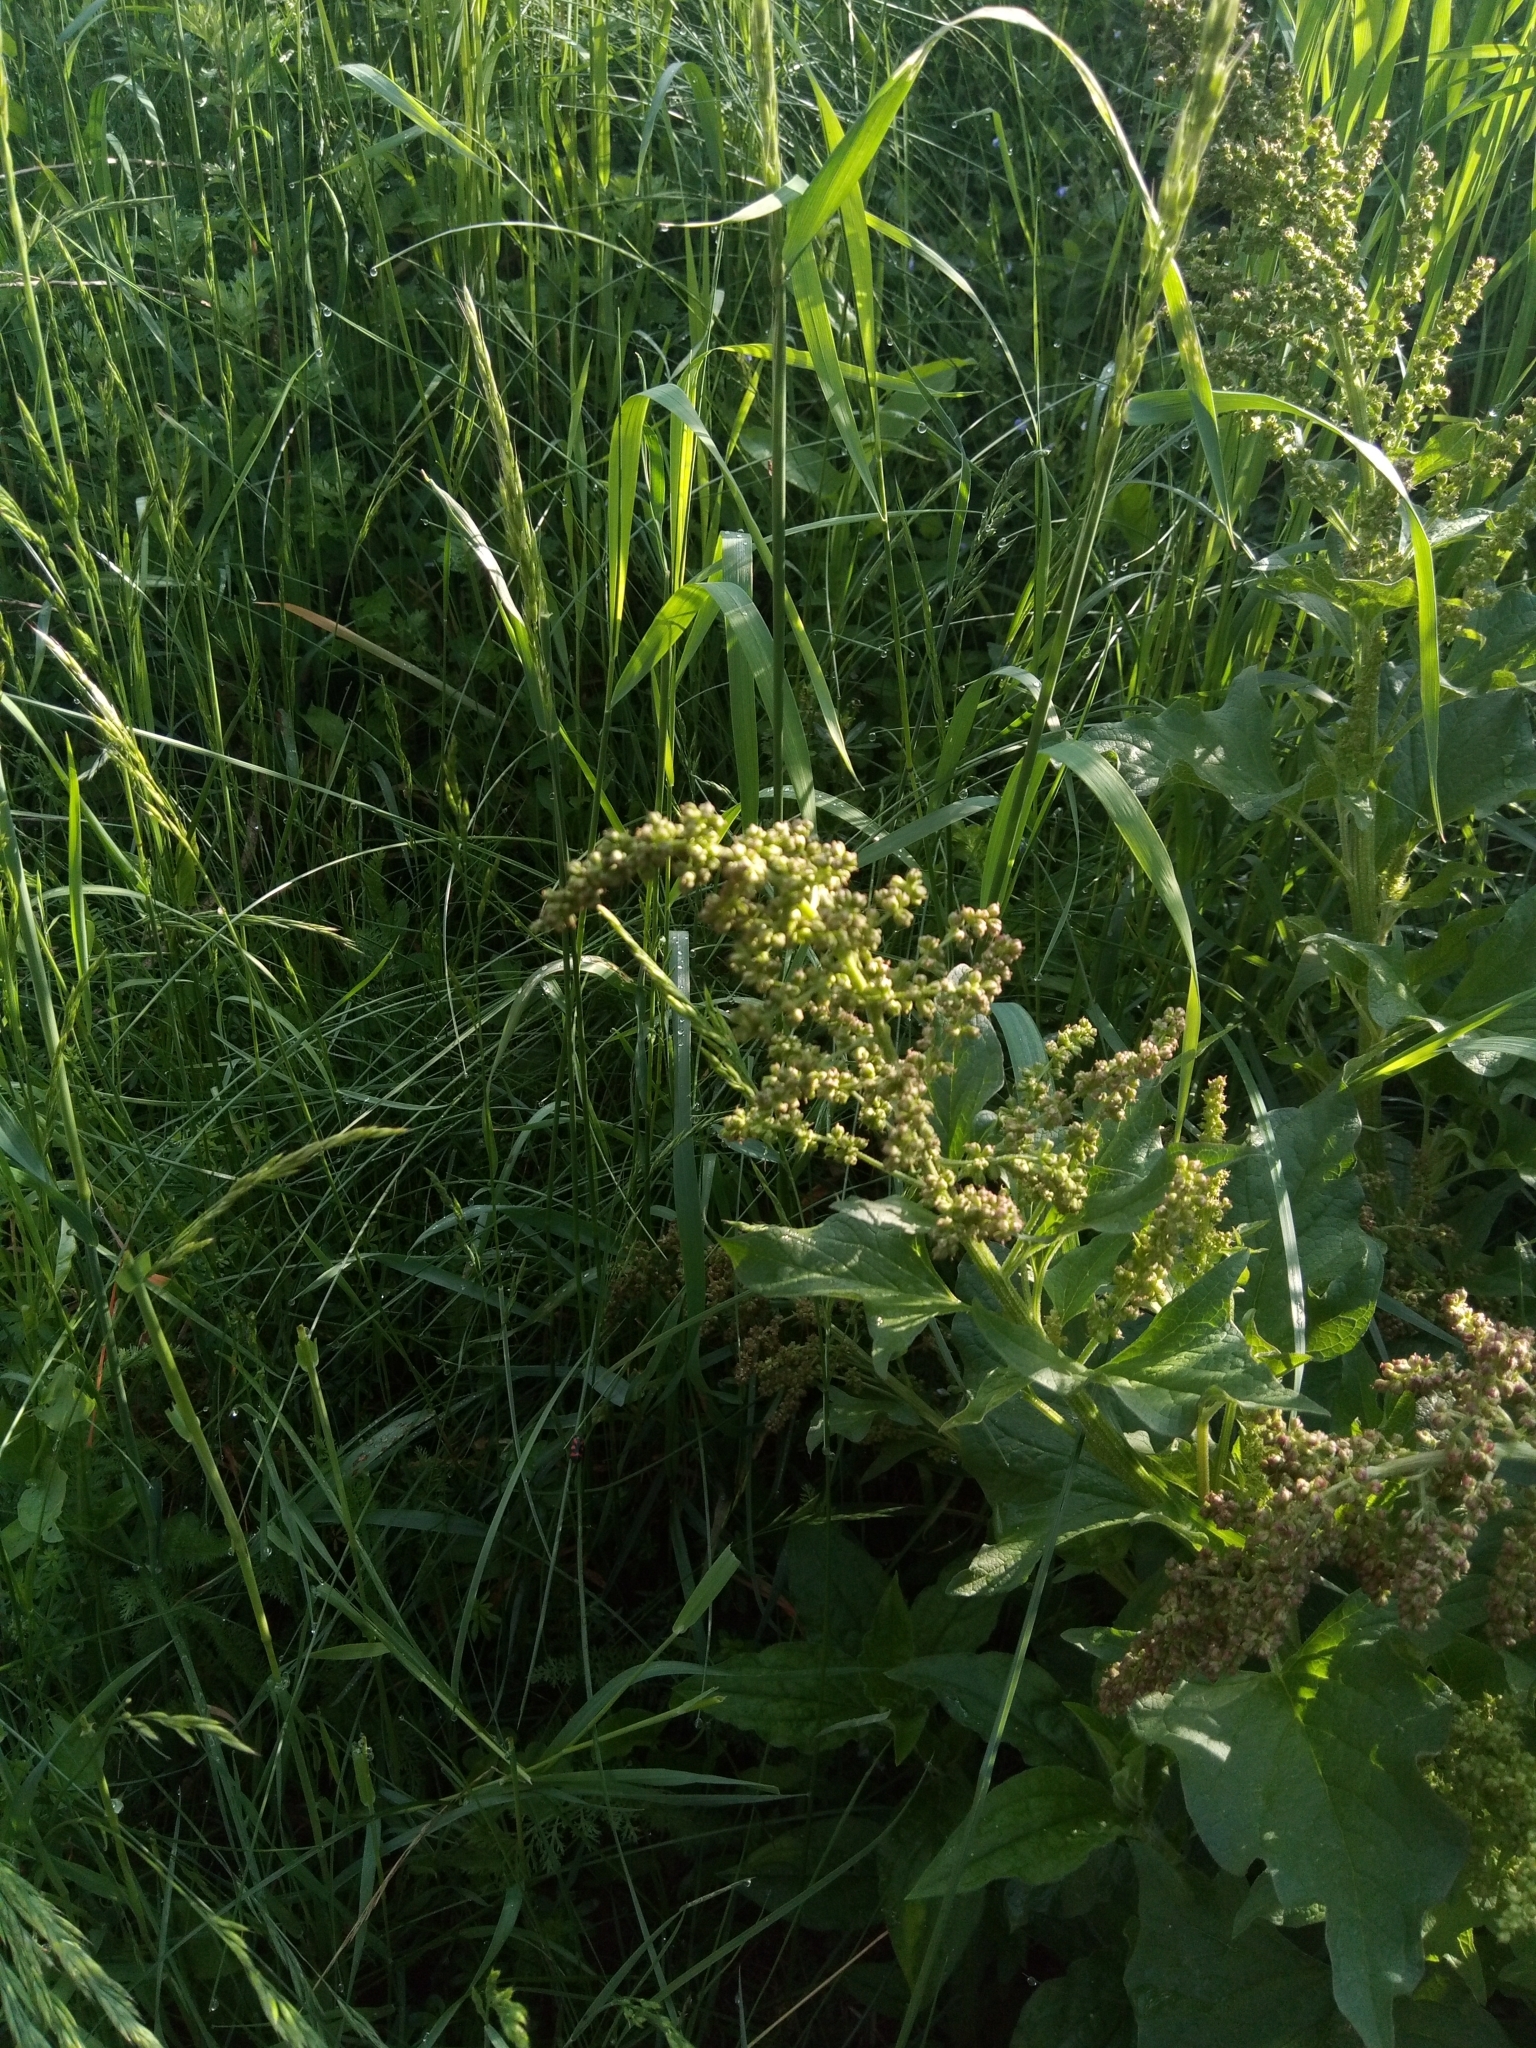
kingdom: Plantae
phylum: Tracheophyta
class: Magnoliopsida
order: Caryophyllales
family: Amaranthaceae
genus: Blitum
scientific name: Blitum bonus-henricus
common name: Good king henry
